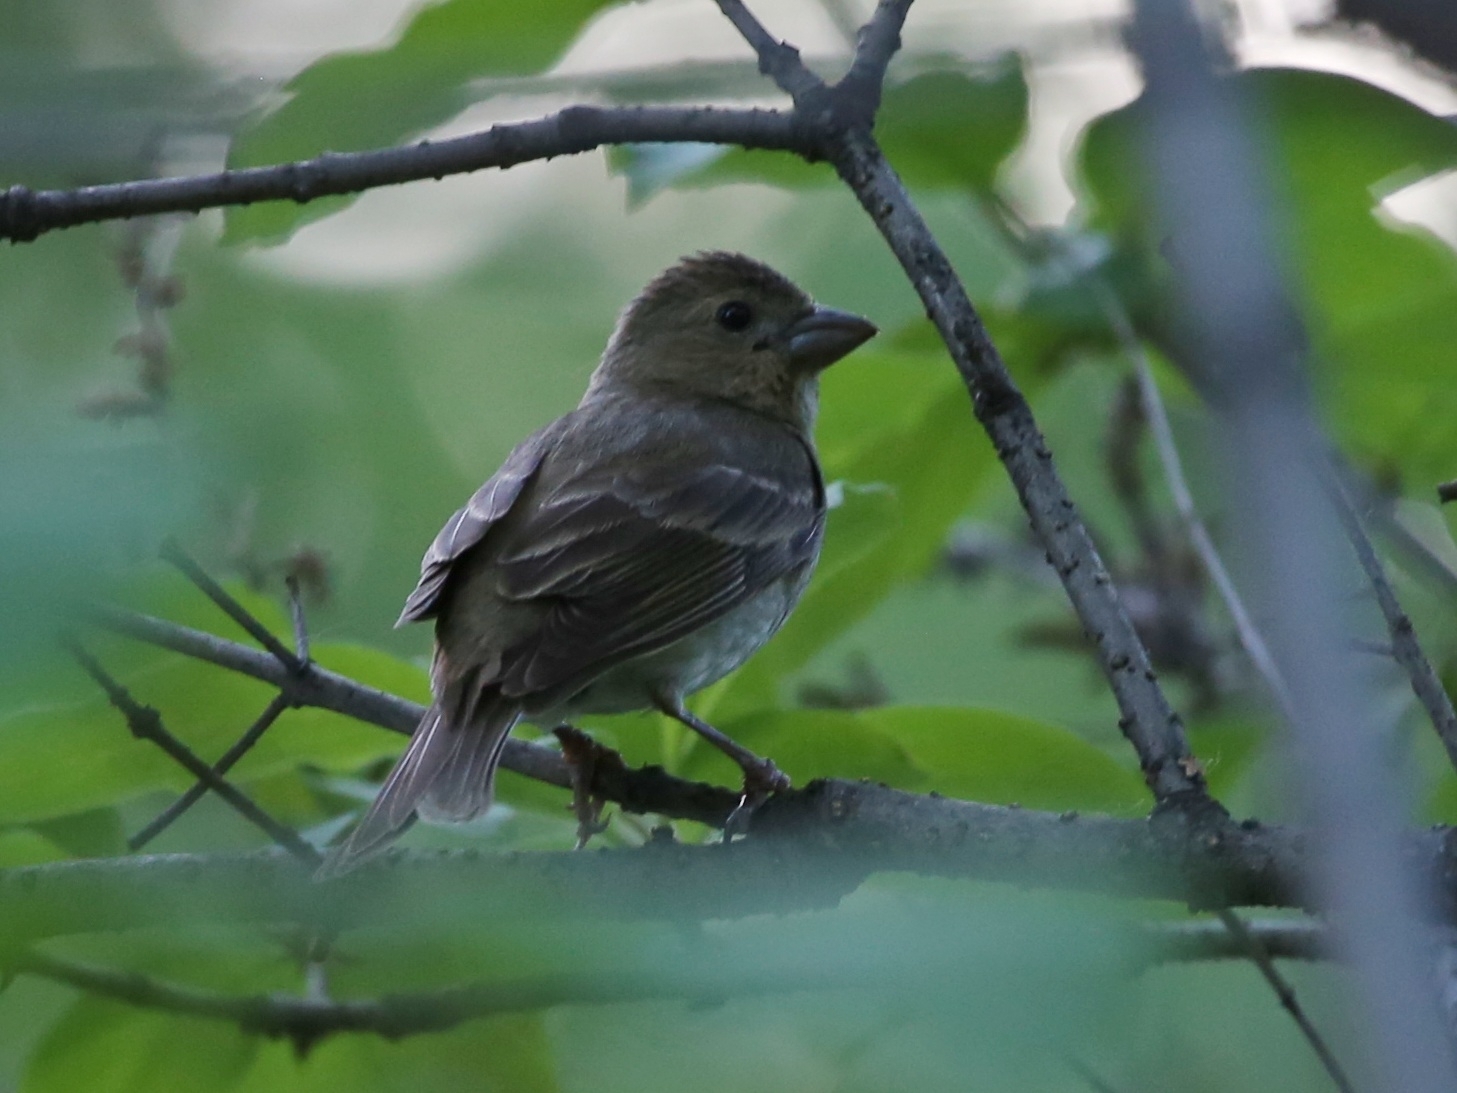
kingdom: Animalia
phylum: Chordata
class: Aves
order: Passeriformes
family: Fringillidae
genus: Carpodacus
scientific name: Carpodacus erythrinus
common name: Common rosefinch
